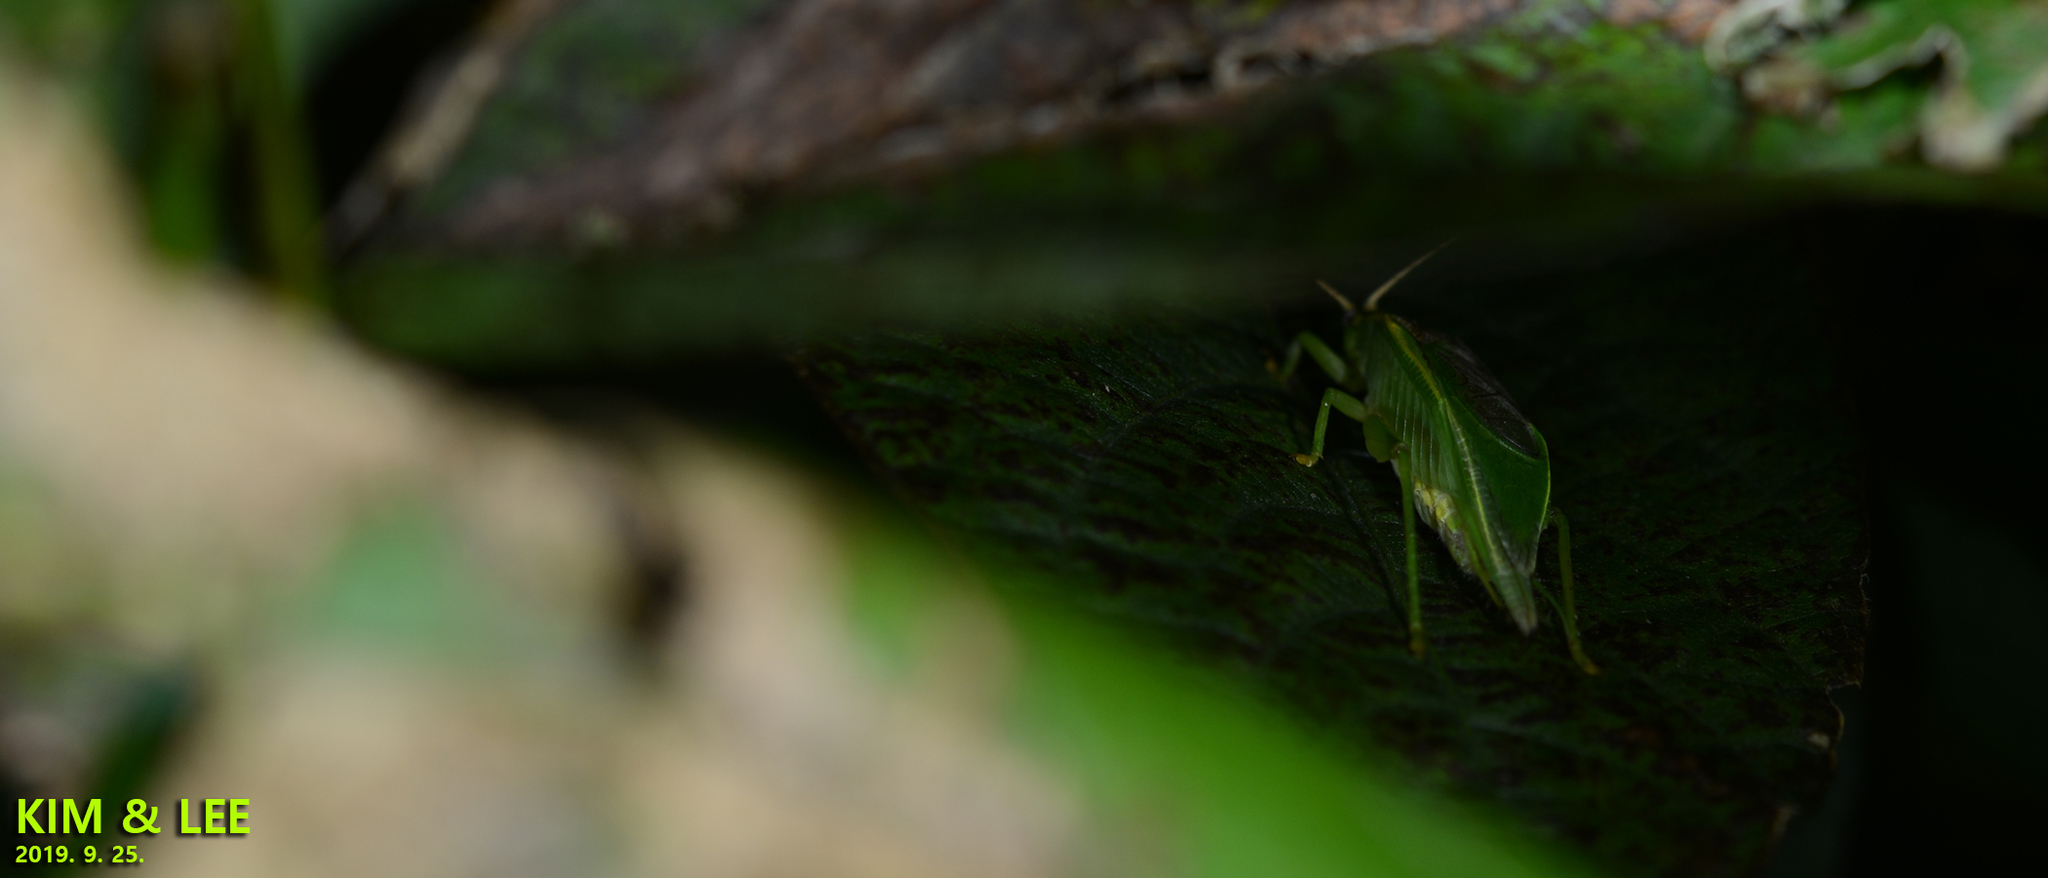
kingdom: Animalia
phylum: Arthropoda
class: Insecta
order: Orthoptera
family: Gryllidae
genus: Truljalia
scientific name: Truljalia hibinonis
